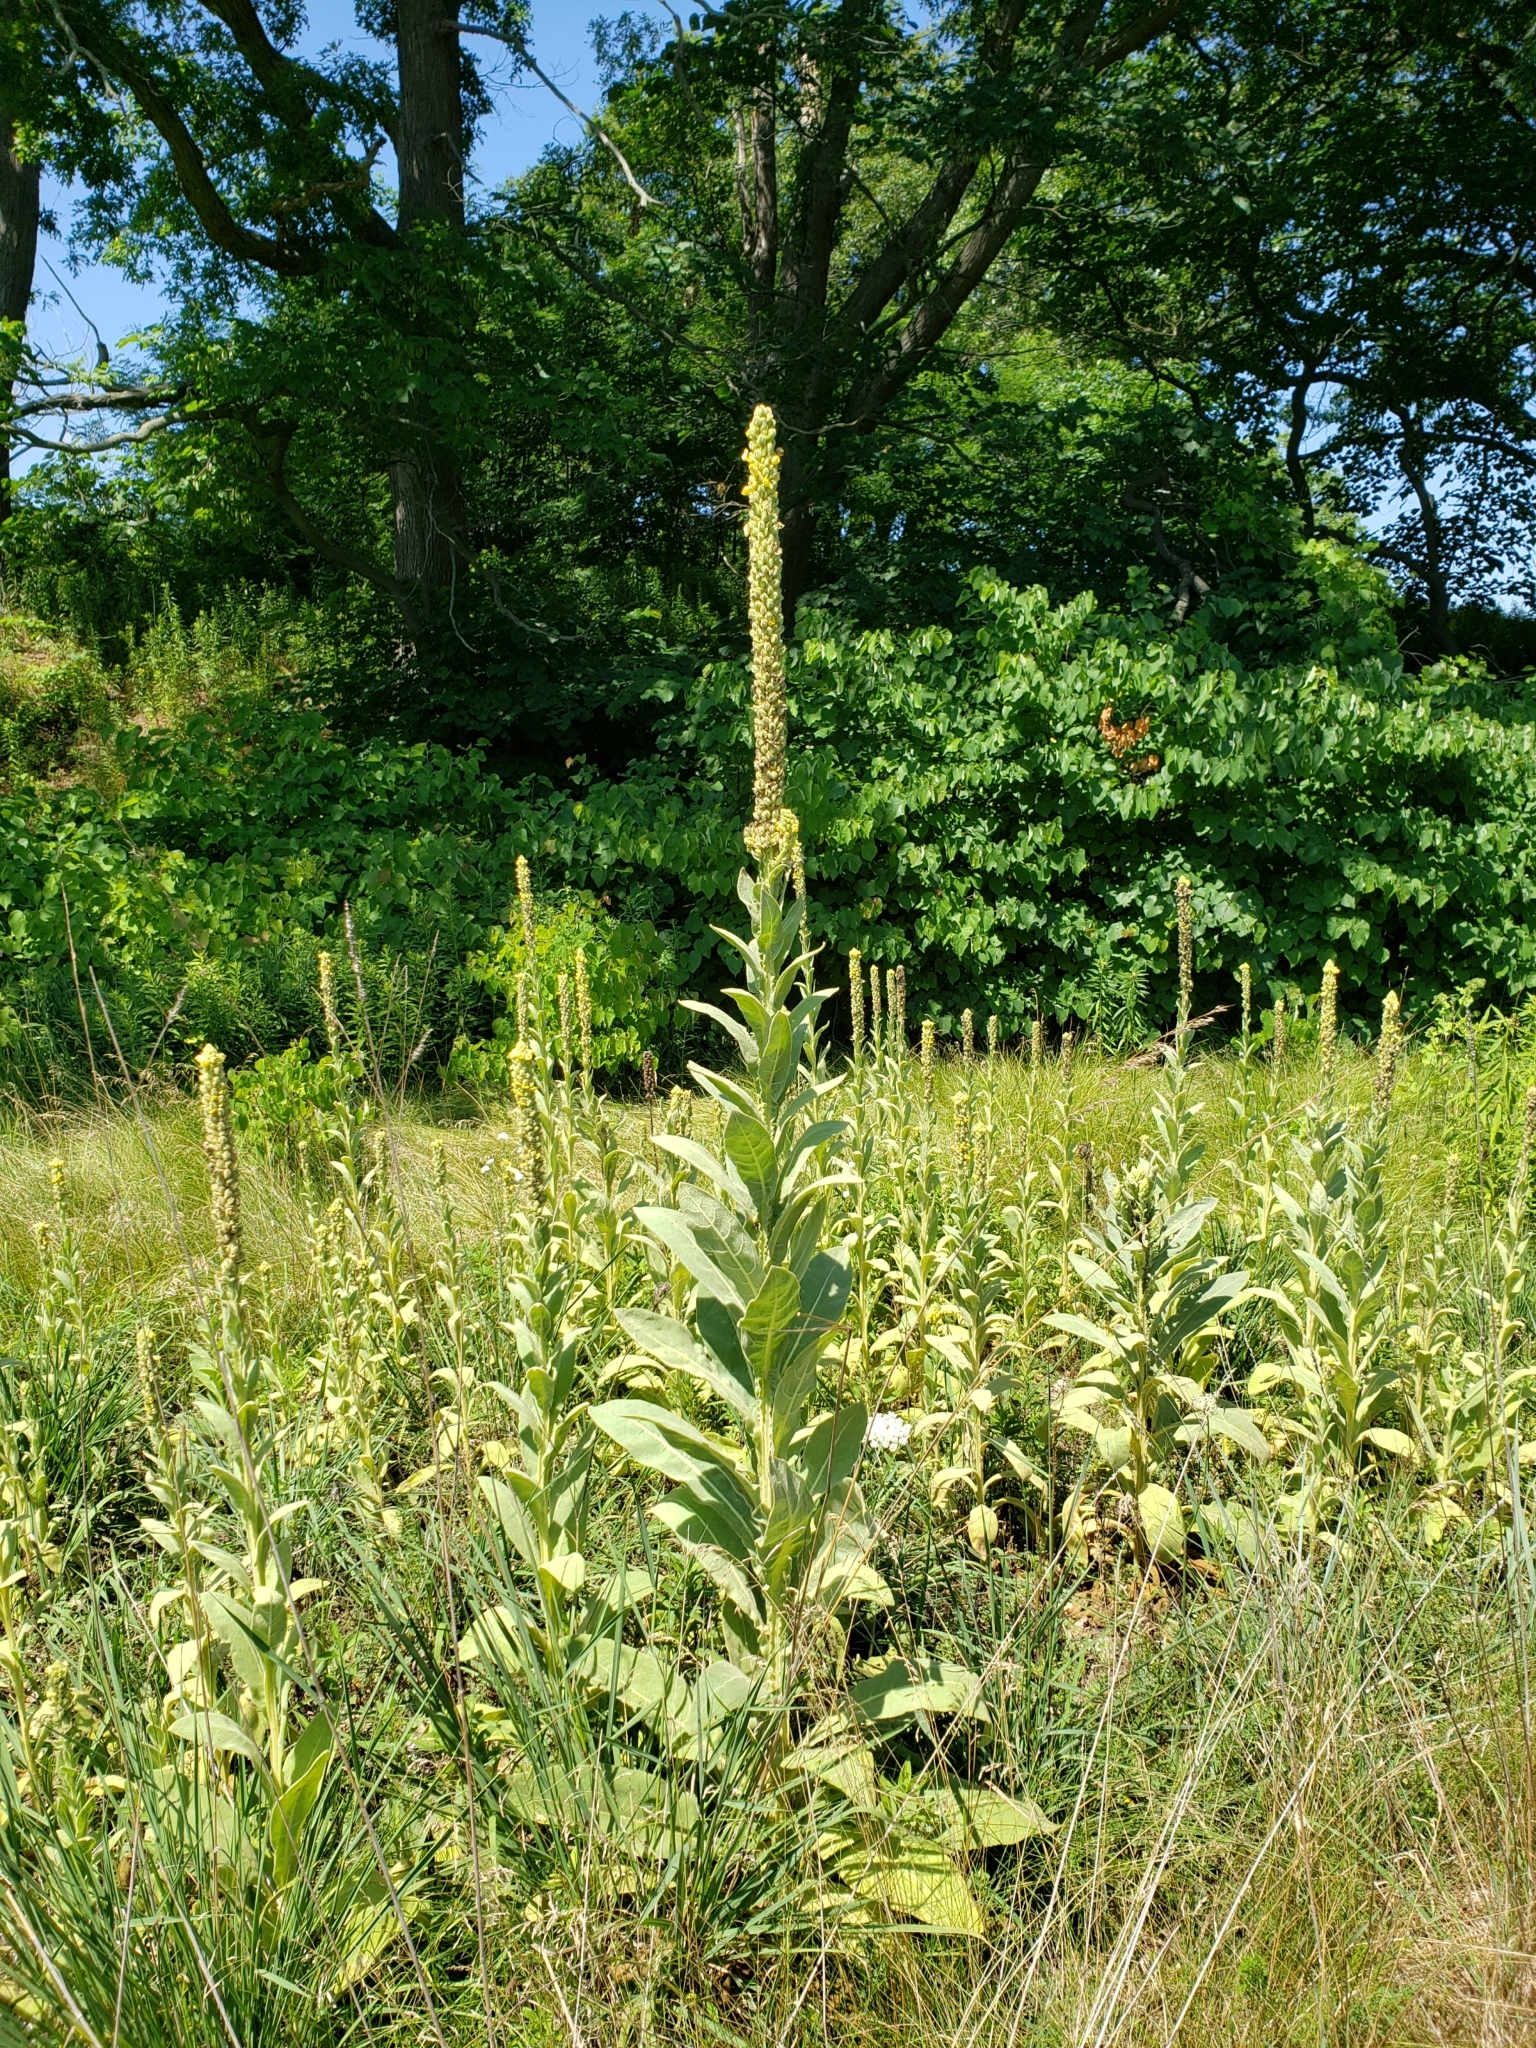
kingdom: Plantae
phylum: Tracheophyta
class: Magnoliopsida
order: Lamiales
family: Scrophulariaceae
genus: Verbascum
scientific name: Verbascum thapsus
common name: Common mullein
